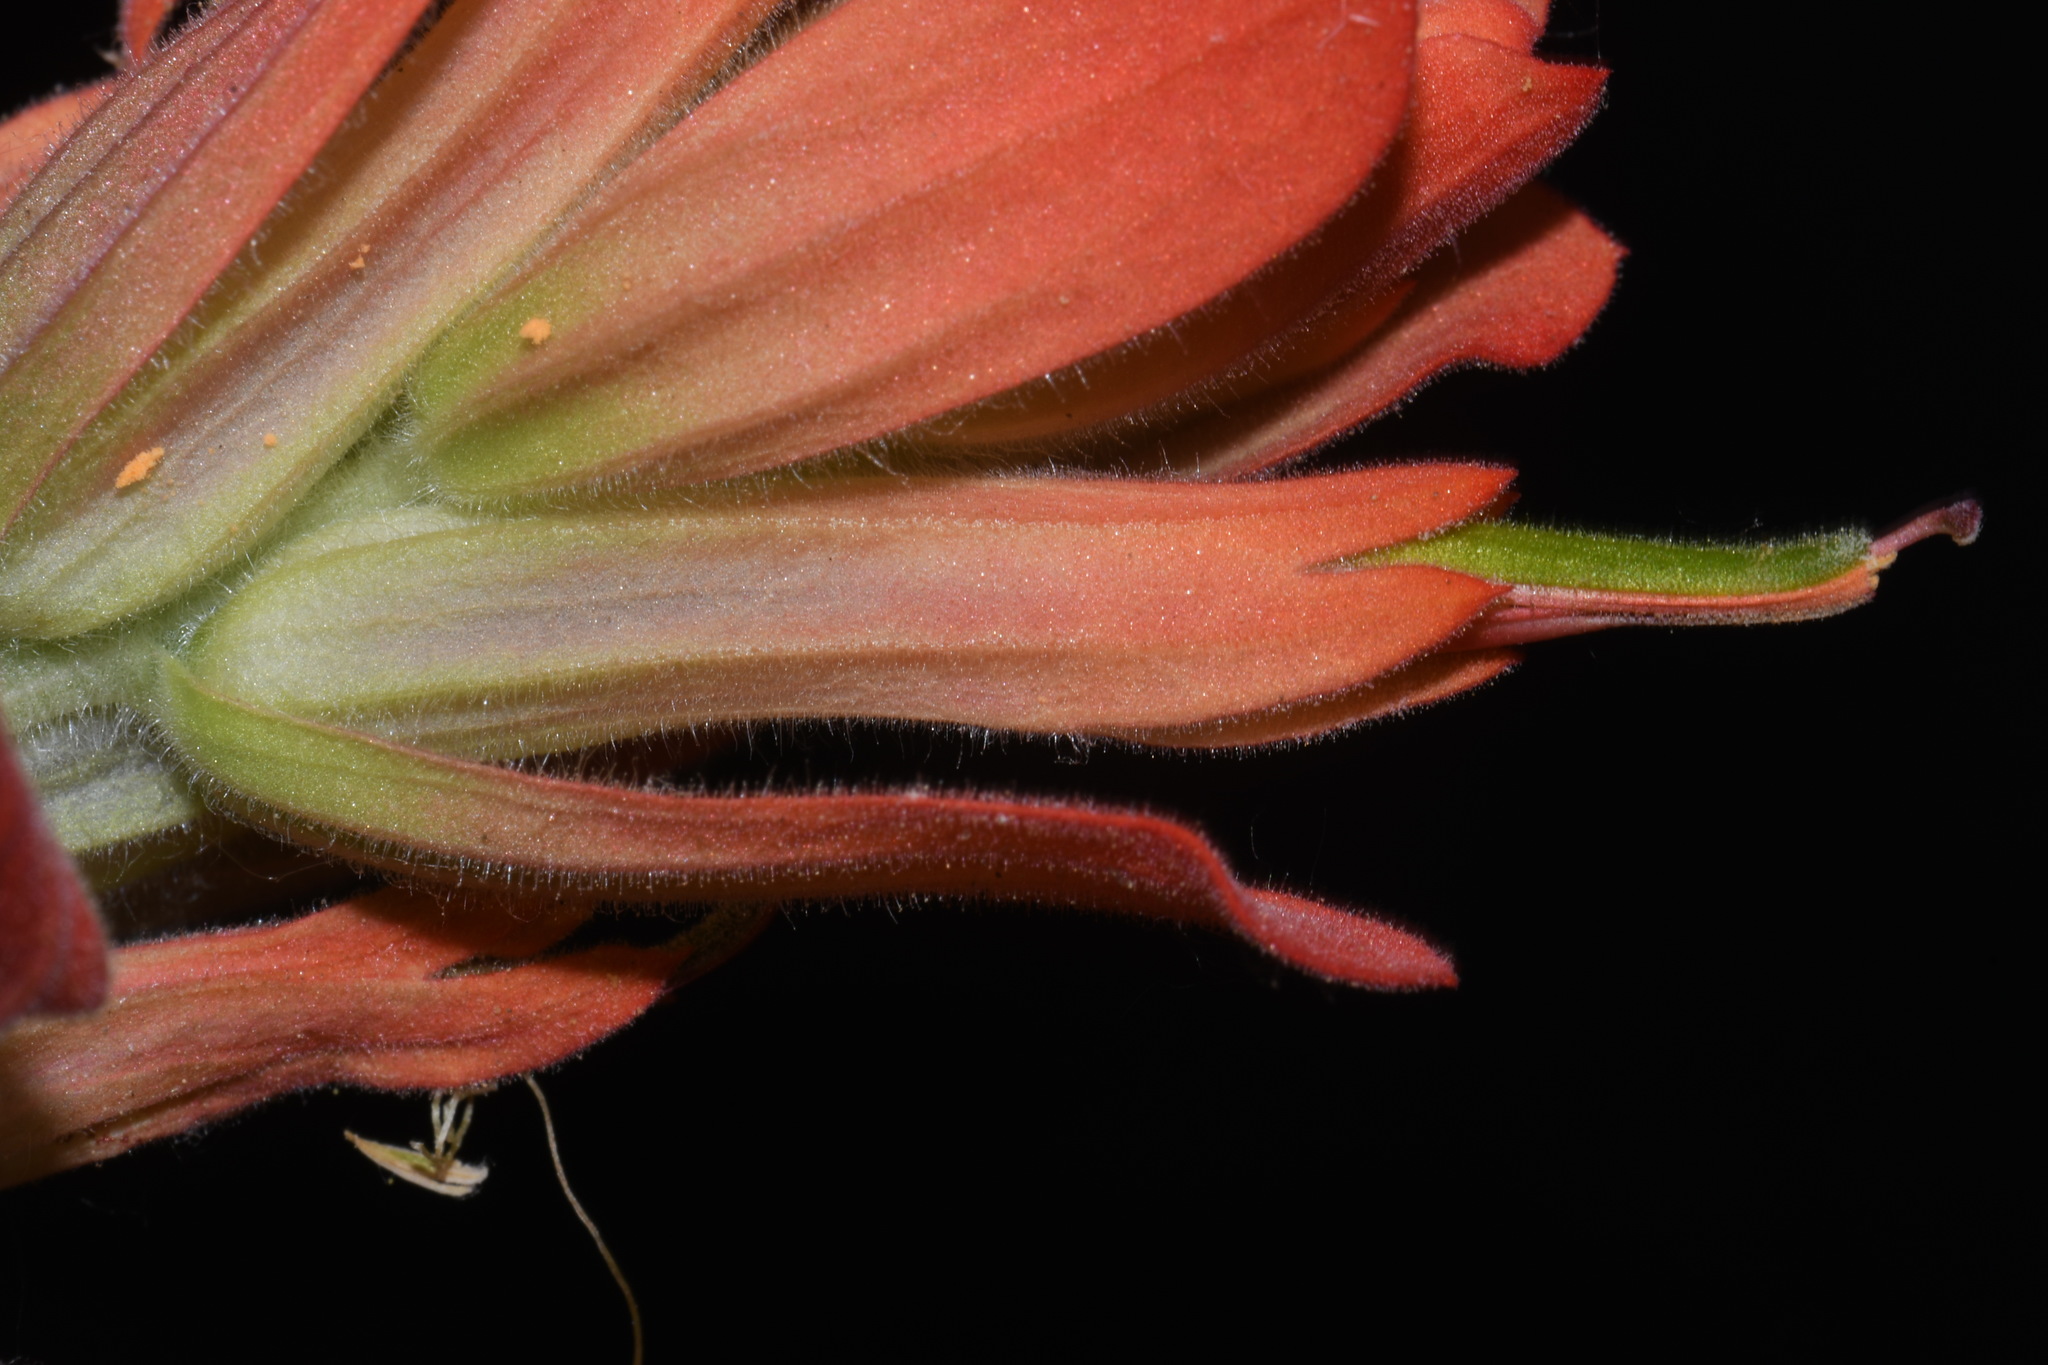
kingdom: Plantae
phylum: Tracheophyta
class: Magnoliopsida
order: Lamiales
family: Orobanchaceae
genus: Castilleja
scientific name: Castilleja integra
